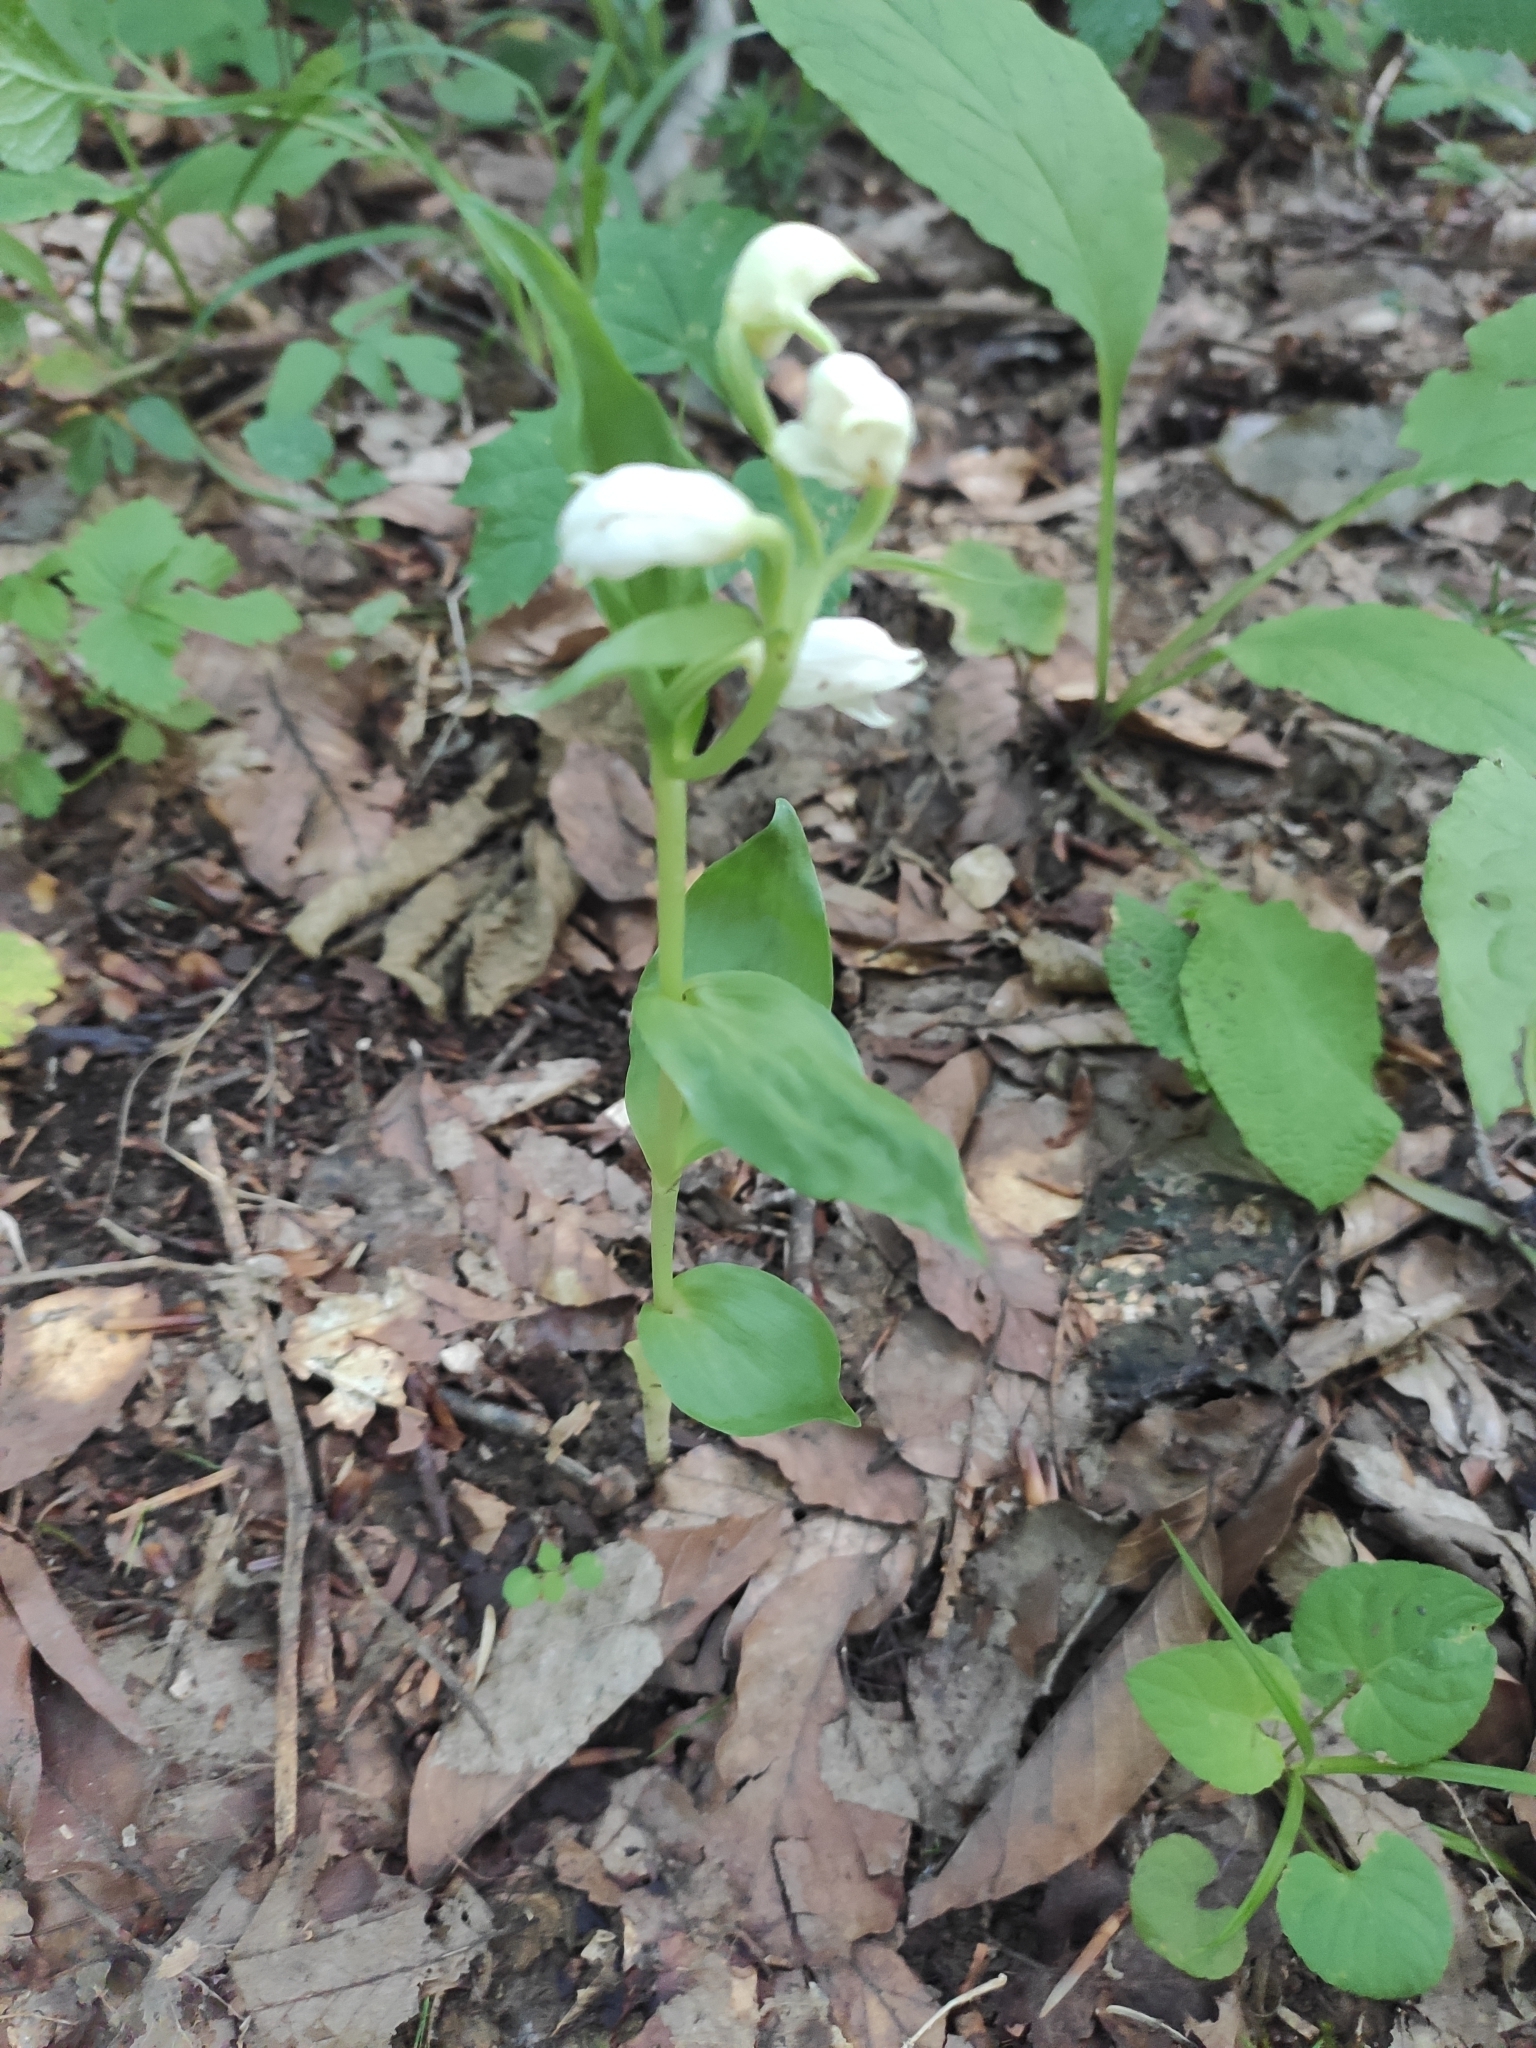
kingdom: Plantae
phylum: Tracheophyta
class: Liliopsida
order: Asparagales
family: Orchidaceae
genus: Cephalanthera
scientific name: Cephalanthera damasonium
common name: White helleborine
